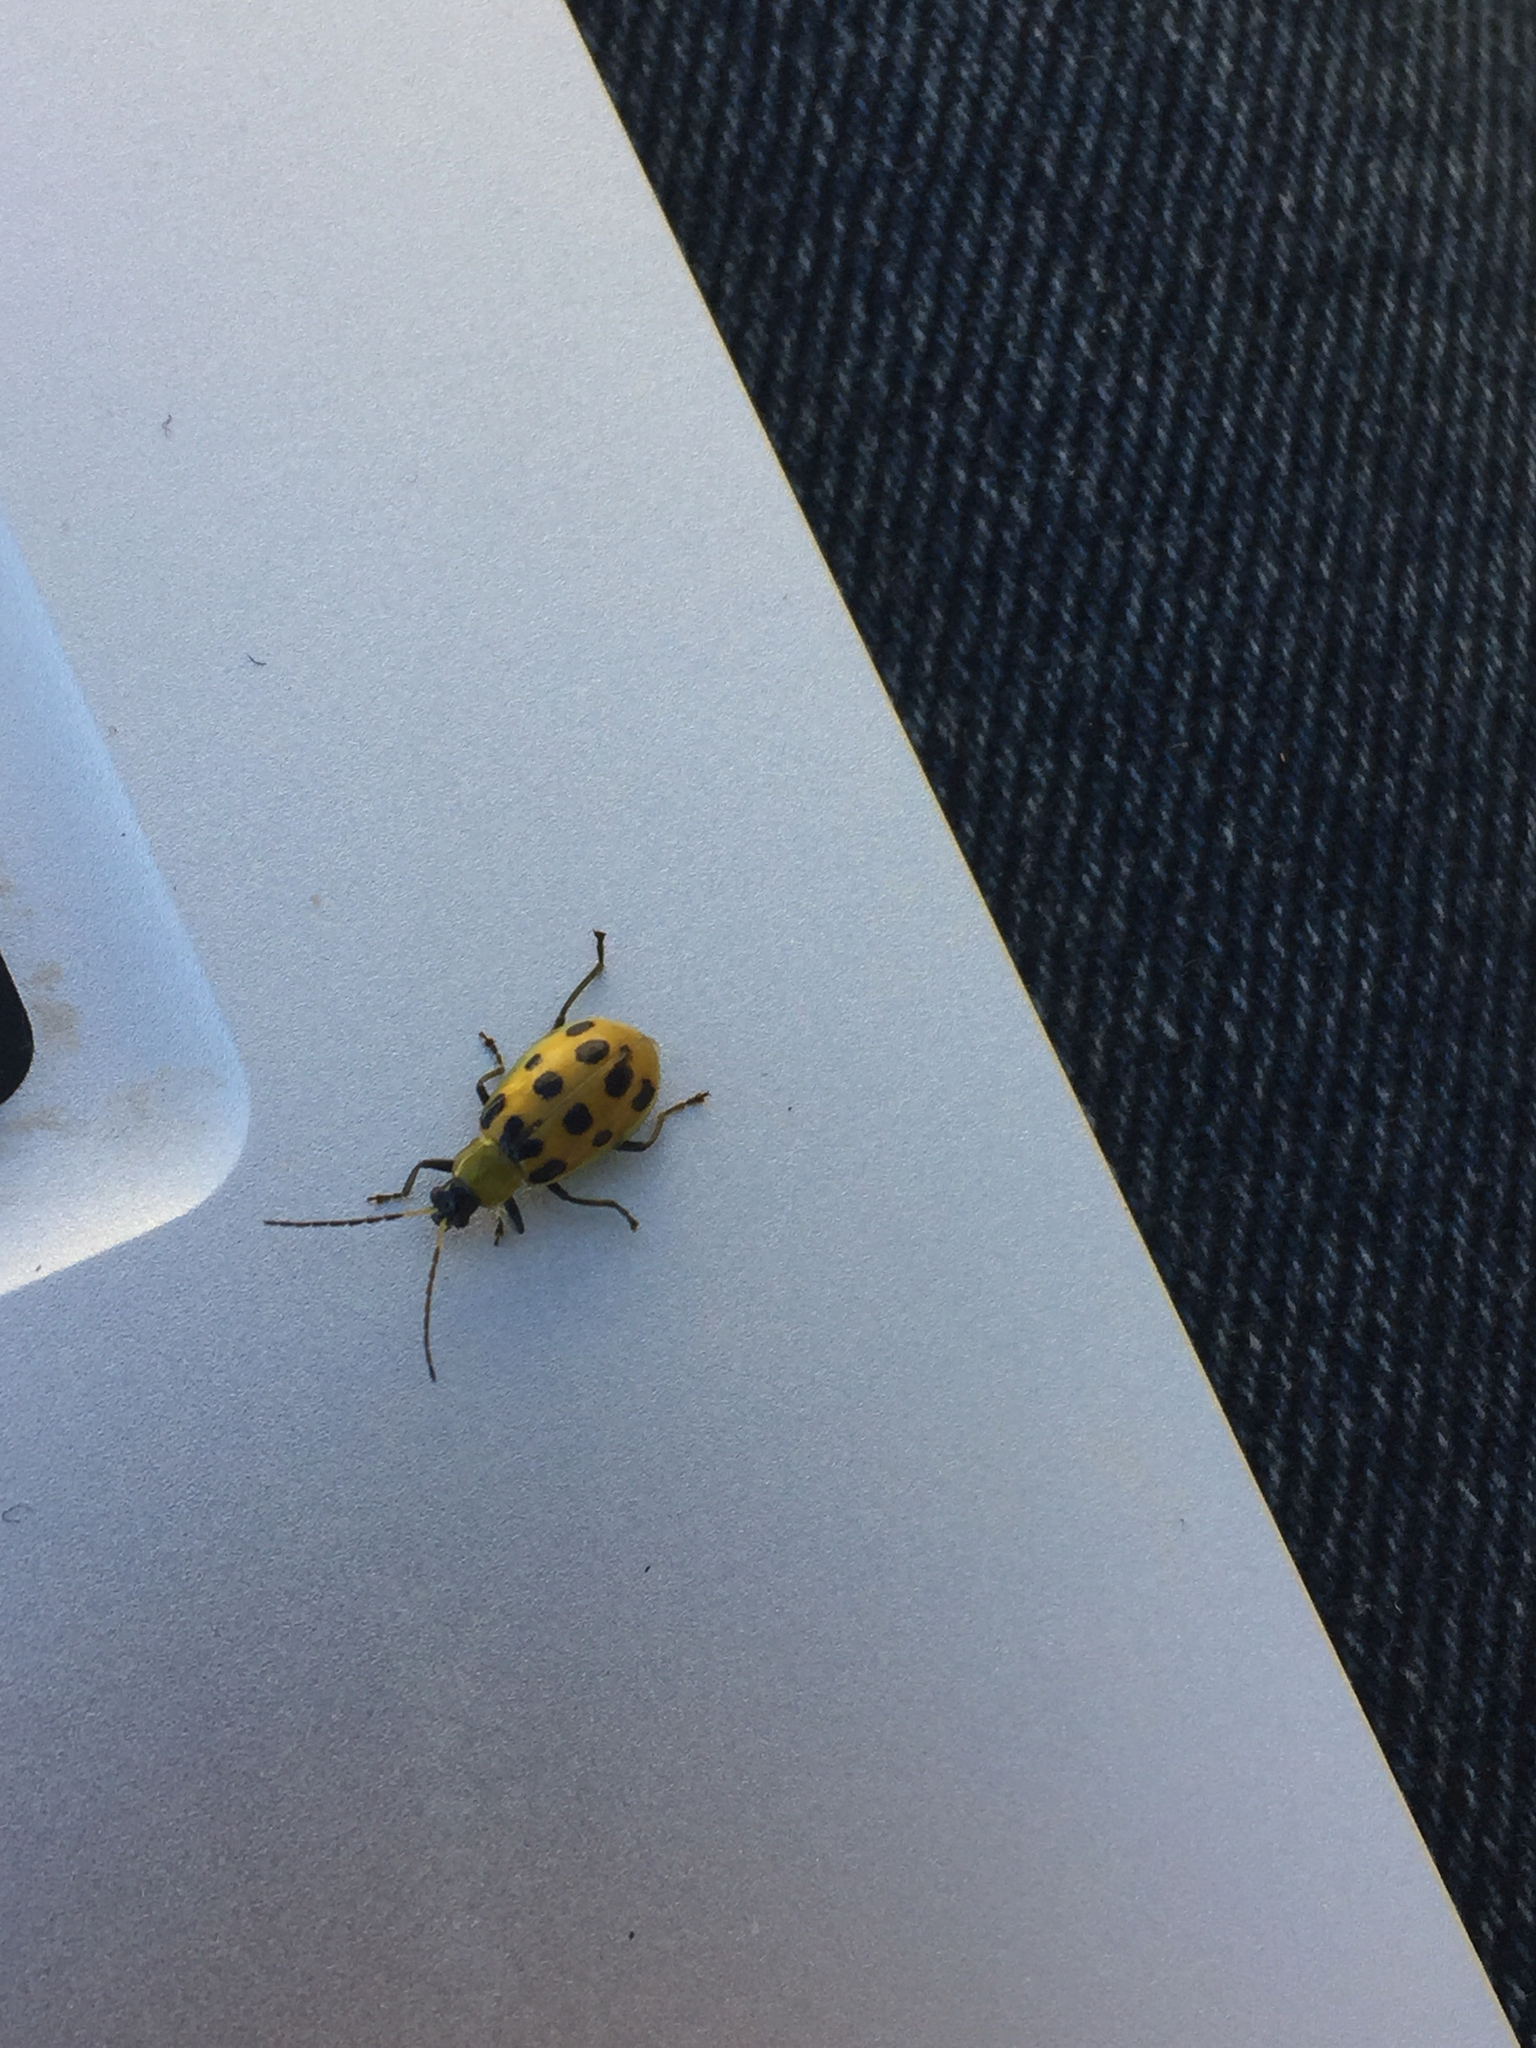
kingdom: Animalia
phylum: Arthropoda
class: Insecta
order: Coleoptera
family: Chrysomelidae
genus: Diabrotica
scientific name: Diabrotica undecimpunctata
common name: Spotted cucumber beetle
